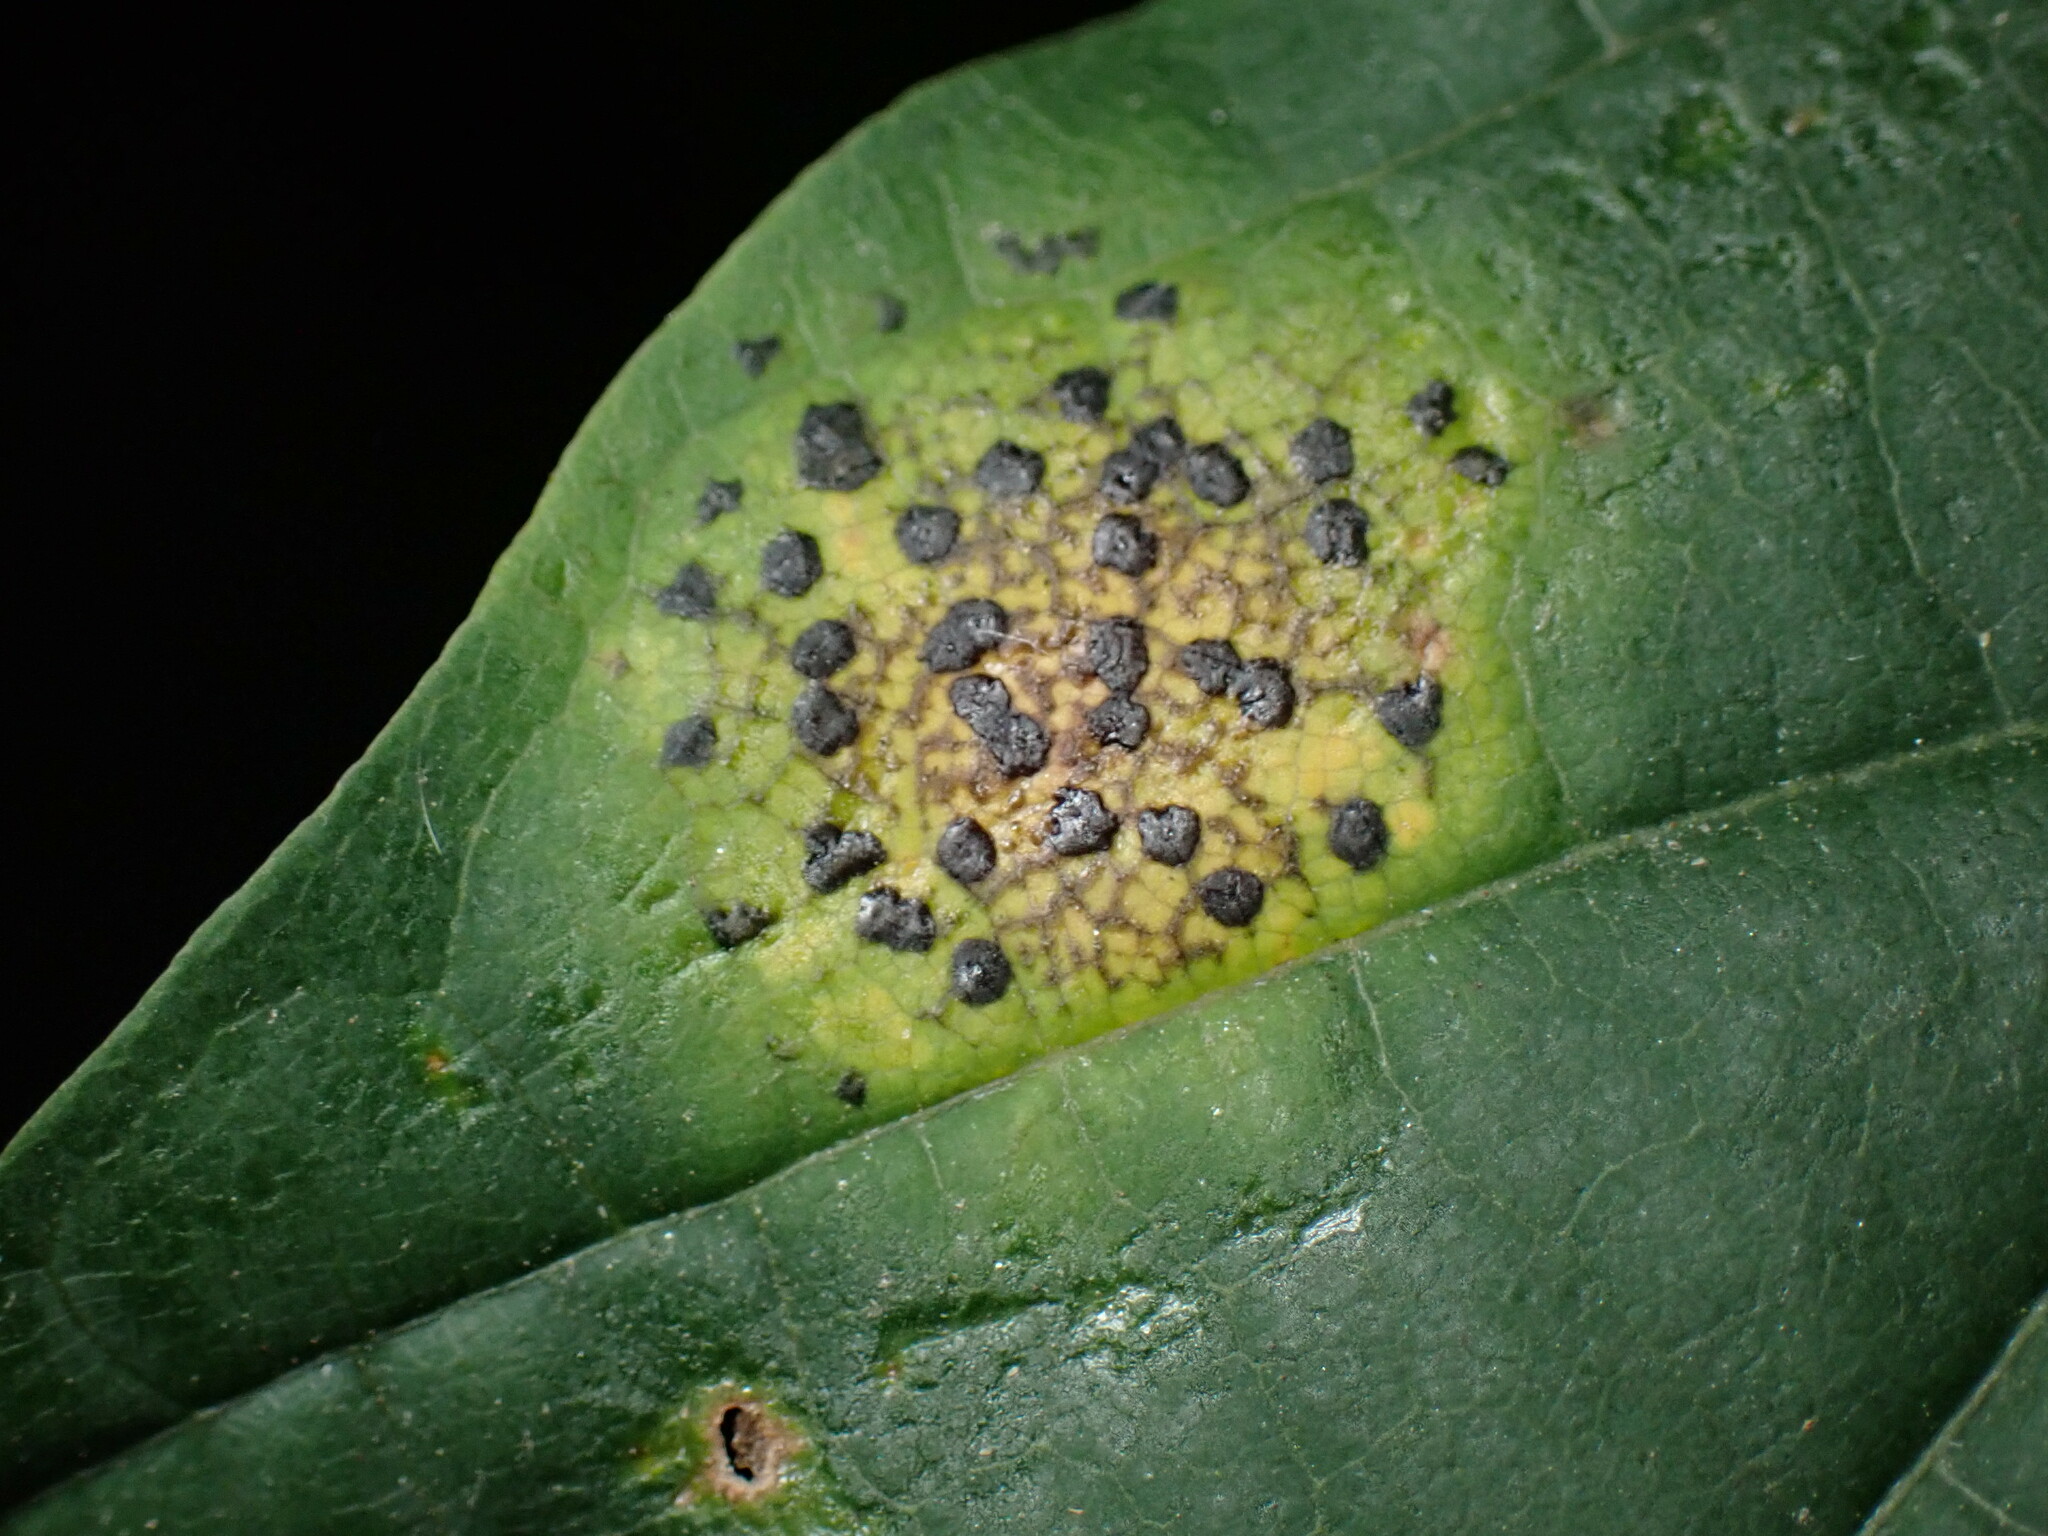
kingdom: Fungi
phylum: Ascomycota
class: Leotiomycetes
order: Rhytismatales
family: Rhytismataceae
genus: Rhytisma
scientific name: Rhytisma acerinum
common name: European tar spot
